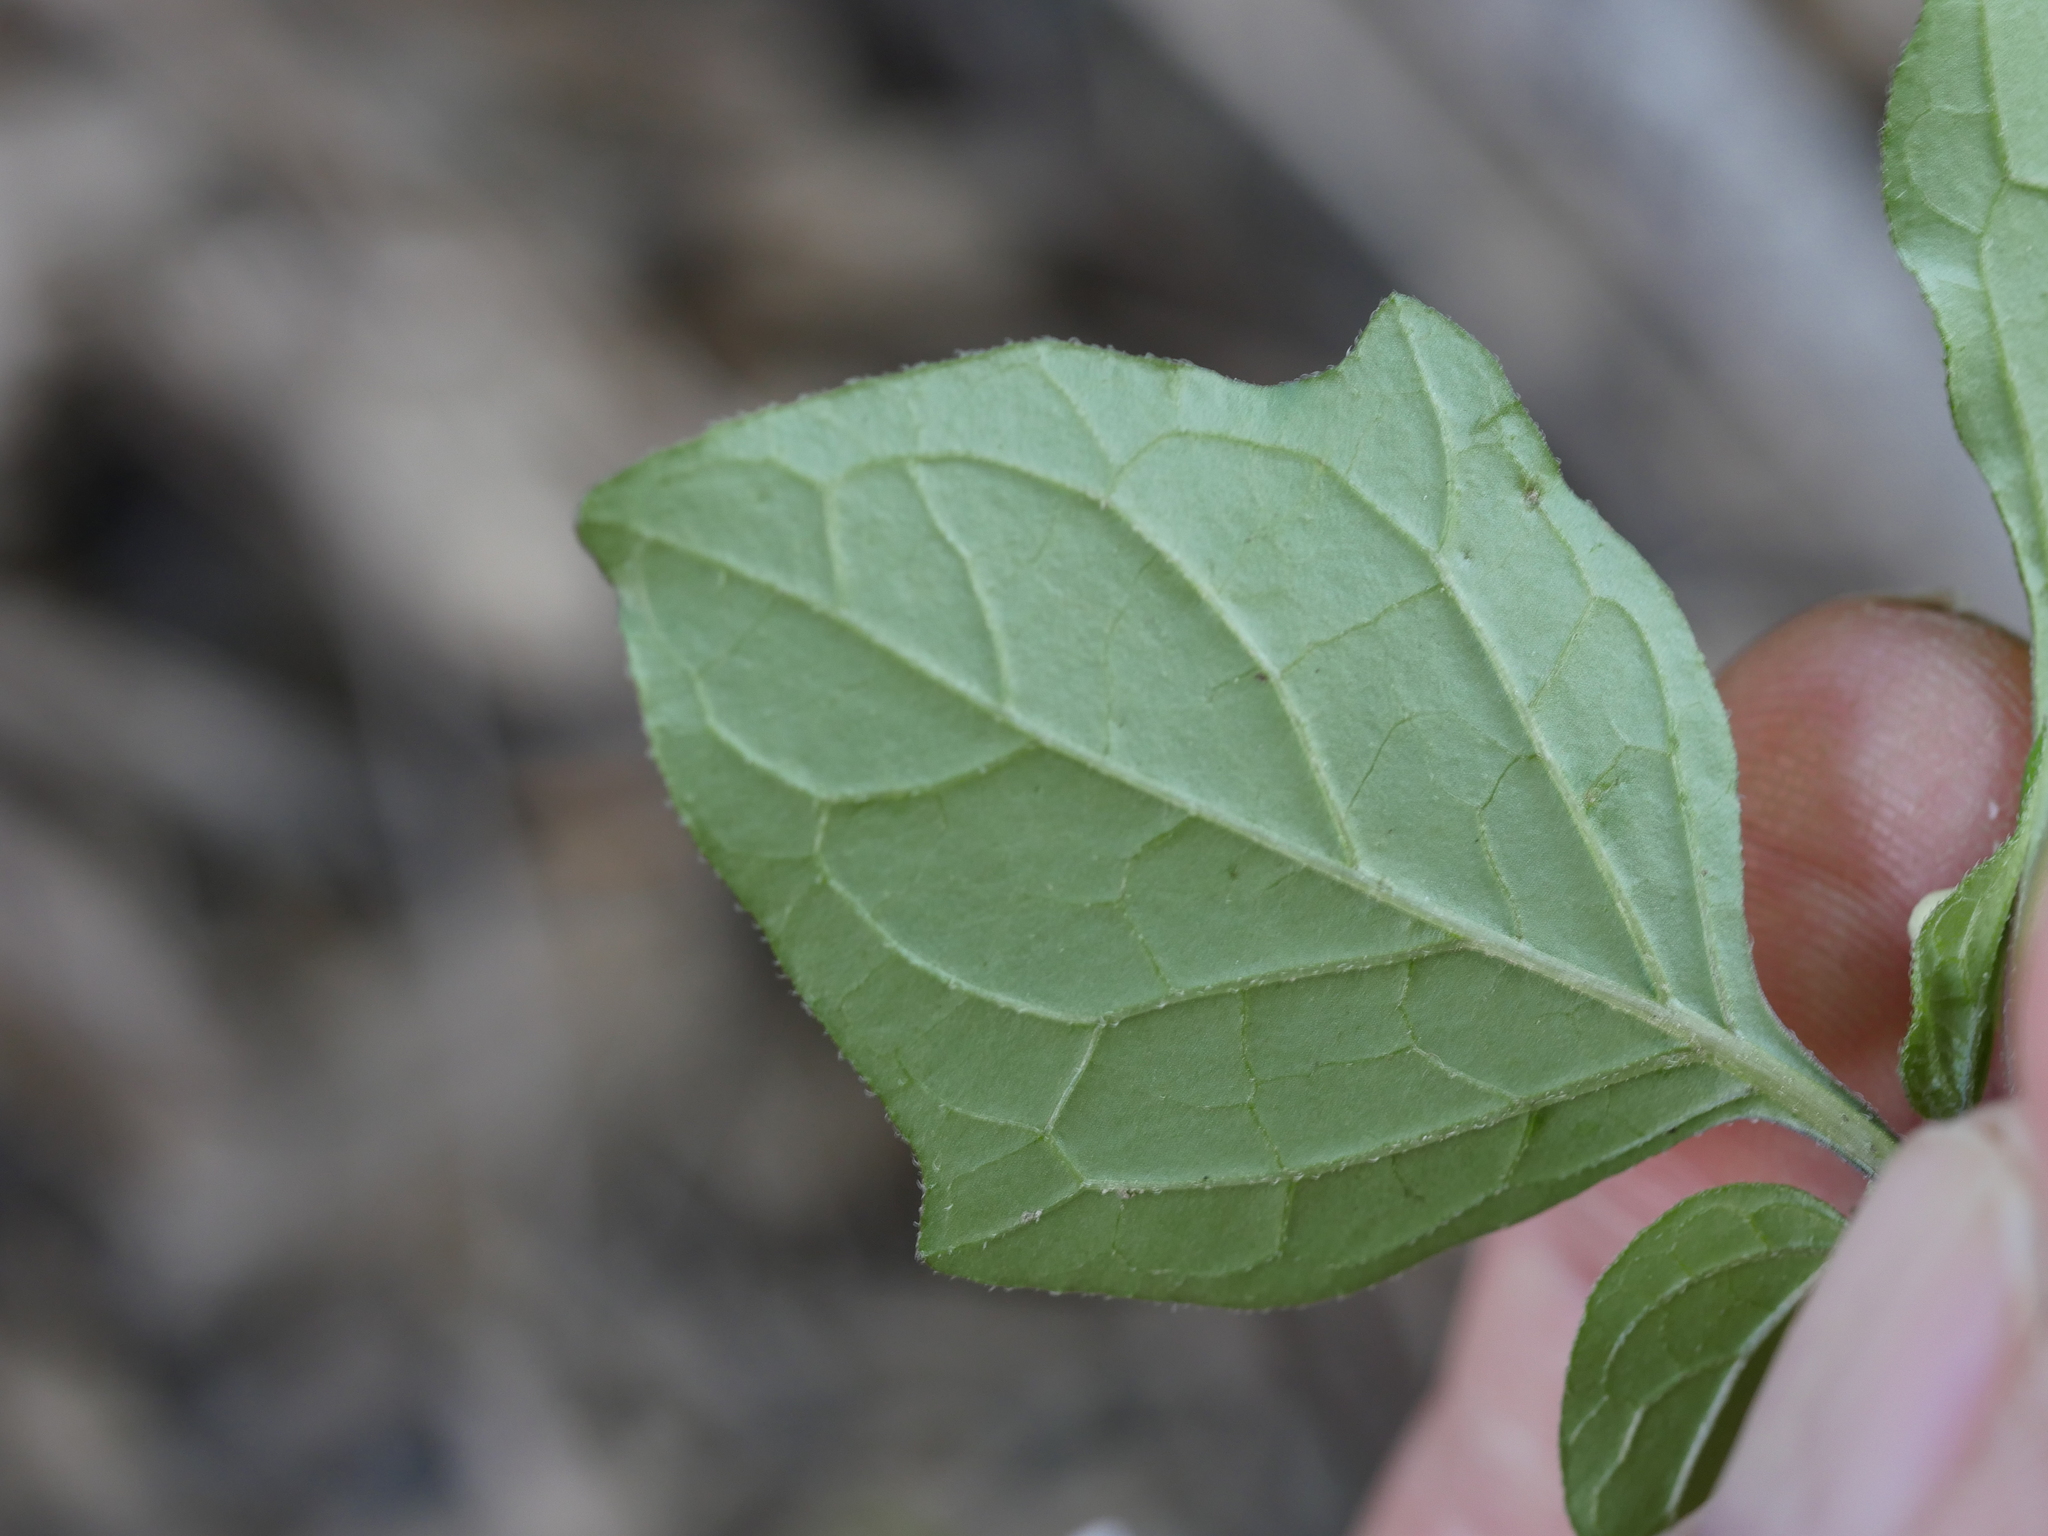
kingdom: Plantae
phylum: Tracheophyta
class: Magnoliopsida
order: Solanales
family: Solanaceae
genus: Solanum
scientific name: Solanum nigrum
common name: Black nightshade
